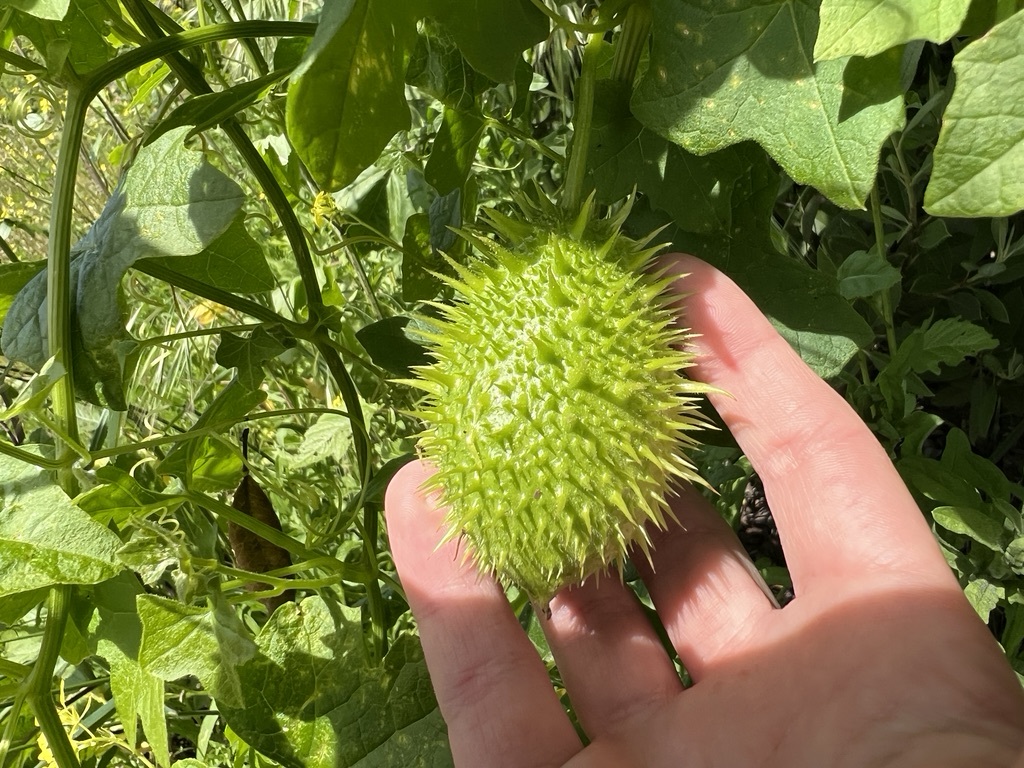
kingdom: Plantae
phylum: Tracheophyta
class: Magnoliopsida
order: Cucurbitales
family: Cucurbitaceae
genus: Marah
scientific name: Marah macrocarpa
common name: Cucamonga manroot
